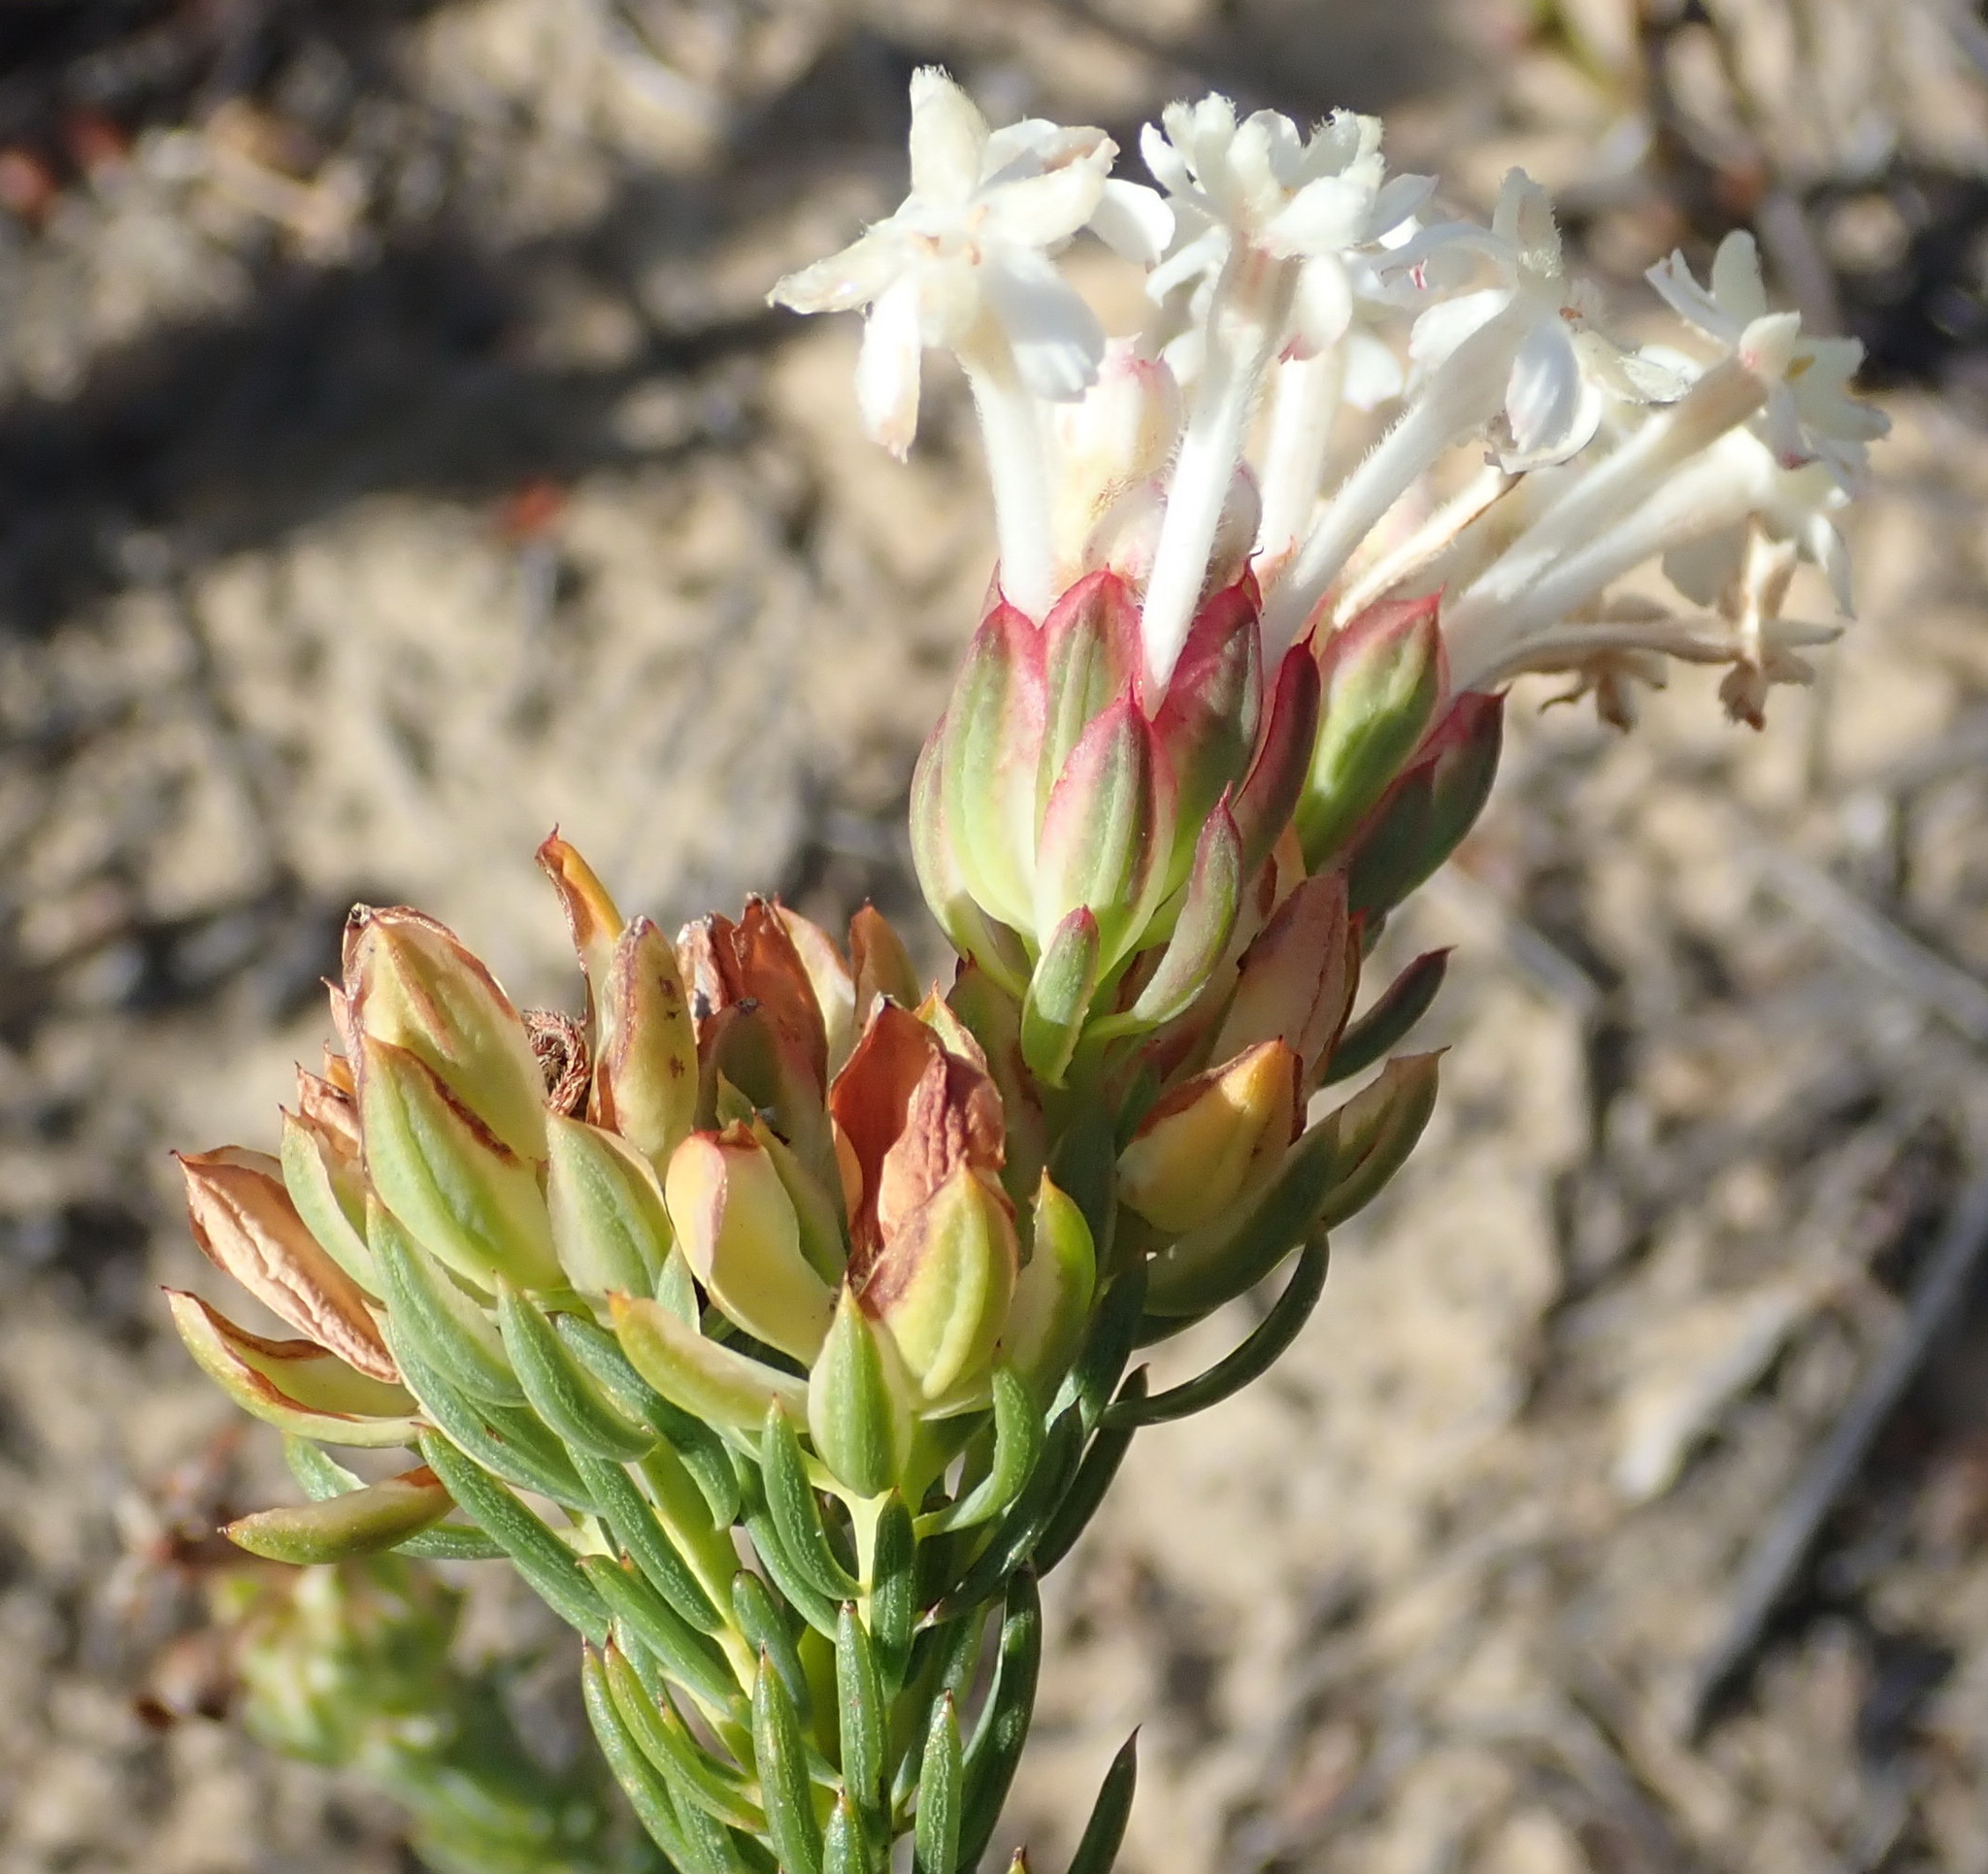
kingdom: Plantae
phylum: Tracheophyta
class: Magnoliopsida
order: Malvales
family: Thymelaeaceae
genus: Gnidia
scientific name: Gnidia pinifolia
